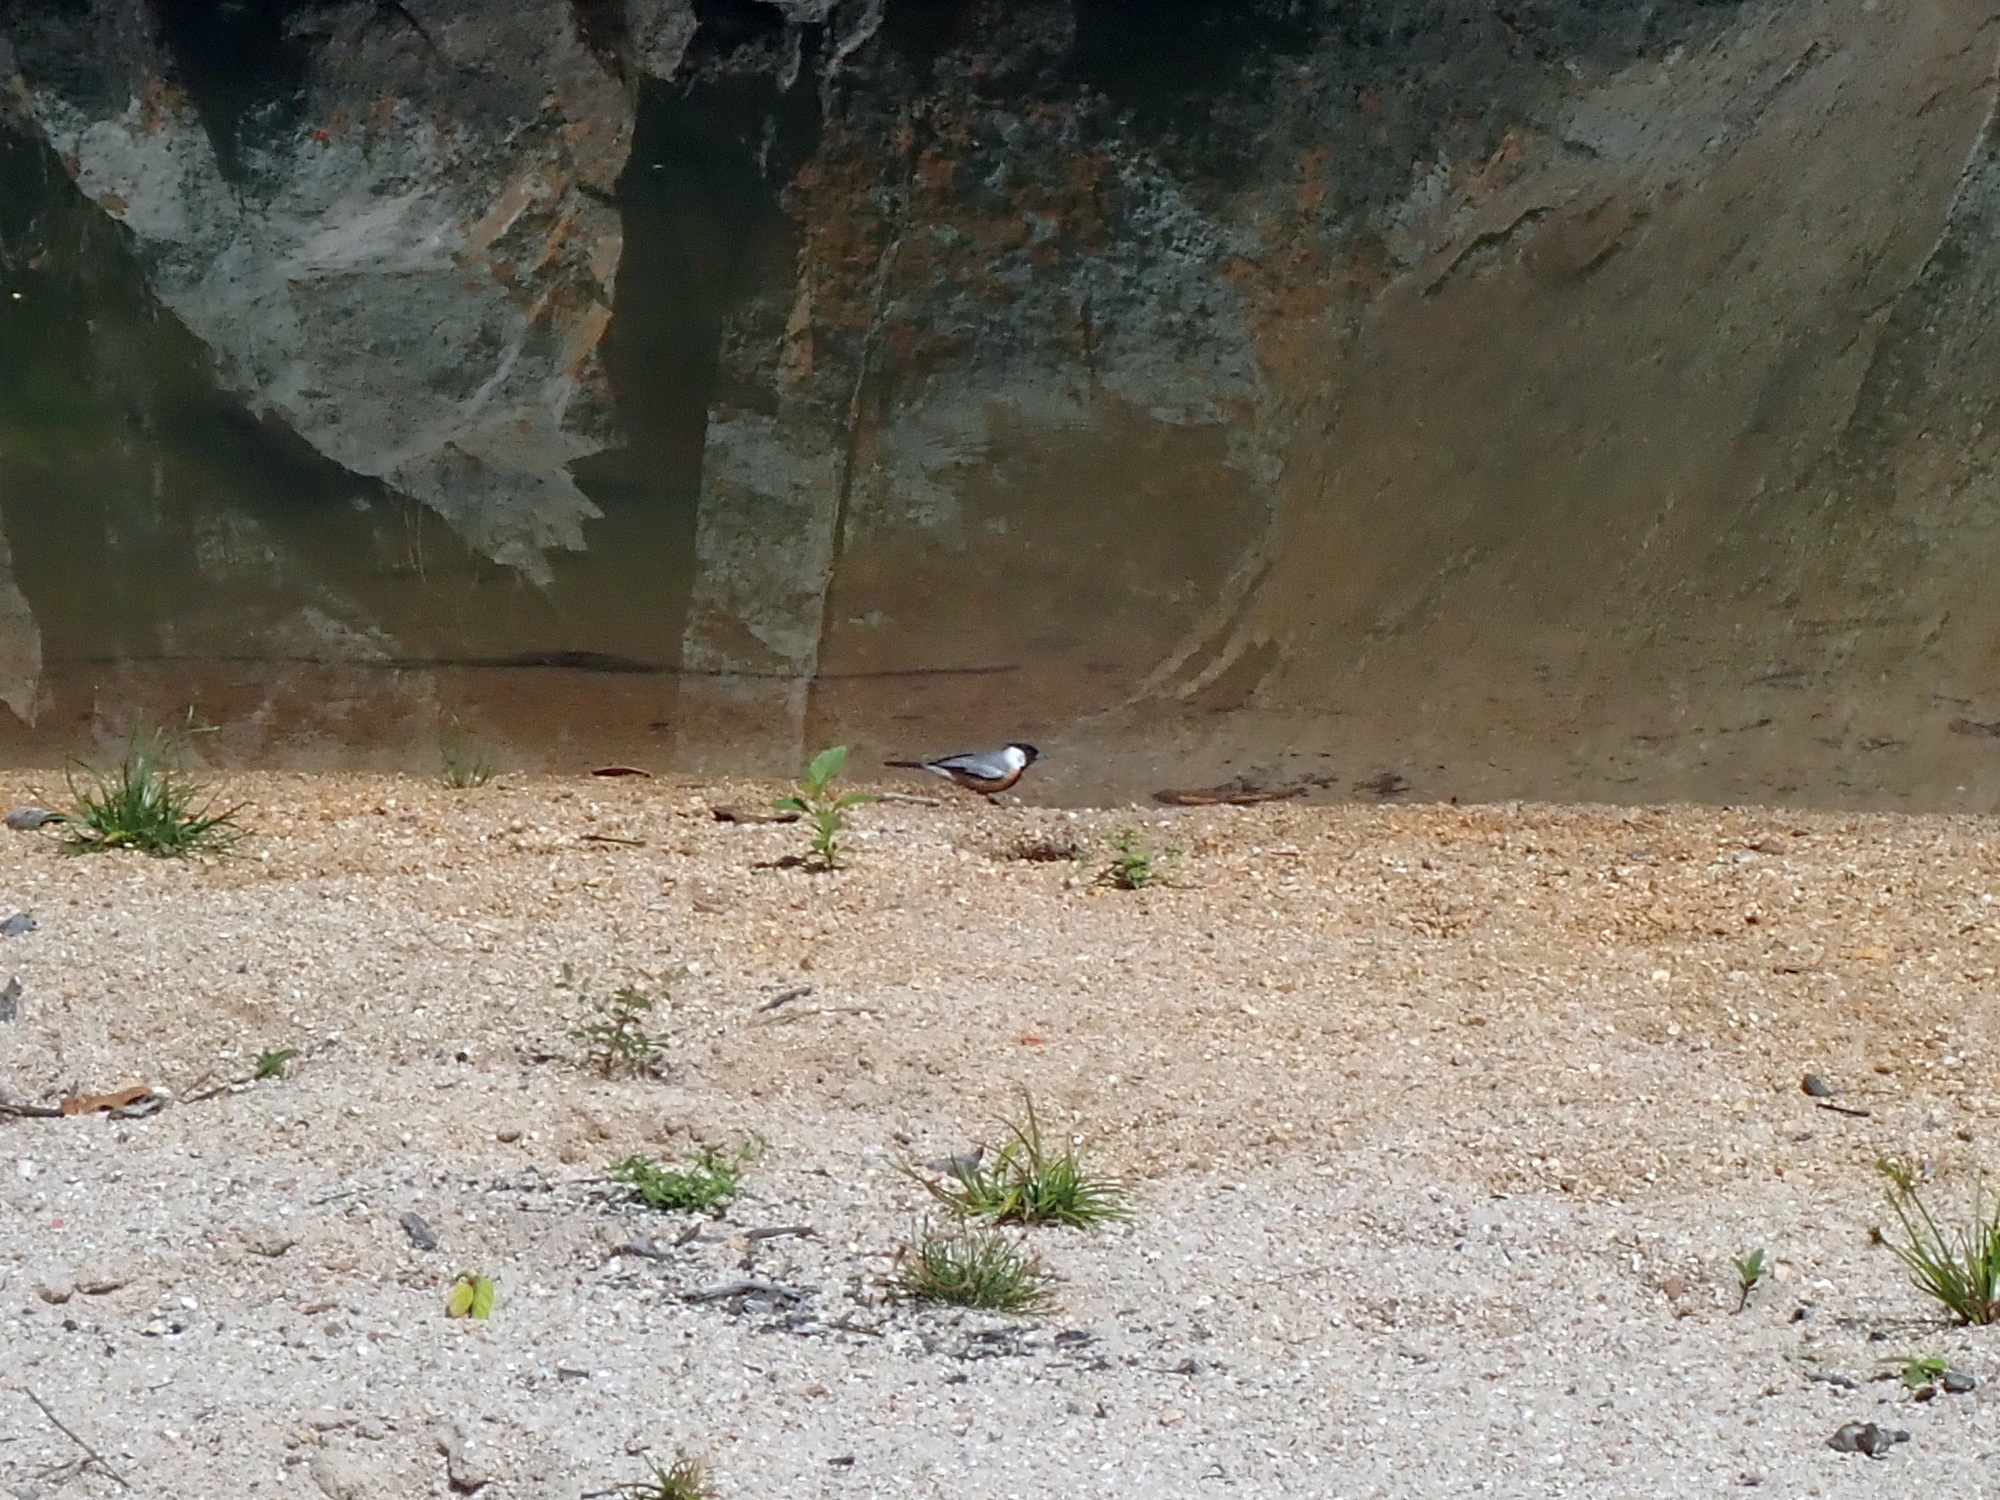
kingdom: Animalia
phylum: Chordata
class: Aves
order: Passeriformes
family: Thraupidae
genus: Charitospiza
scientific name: Charitospiza eucosma
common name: Coal-crested finch
